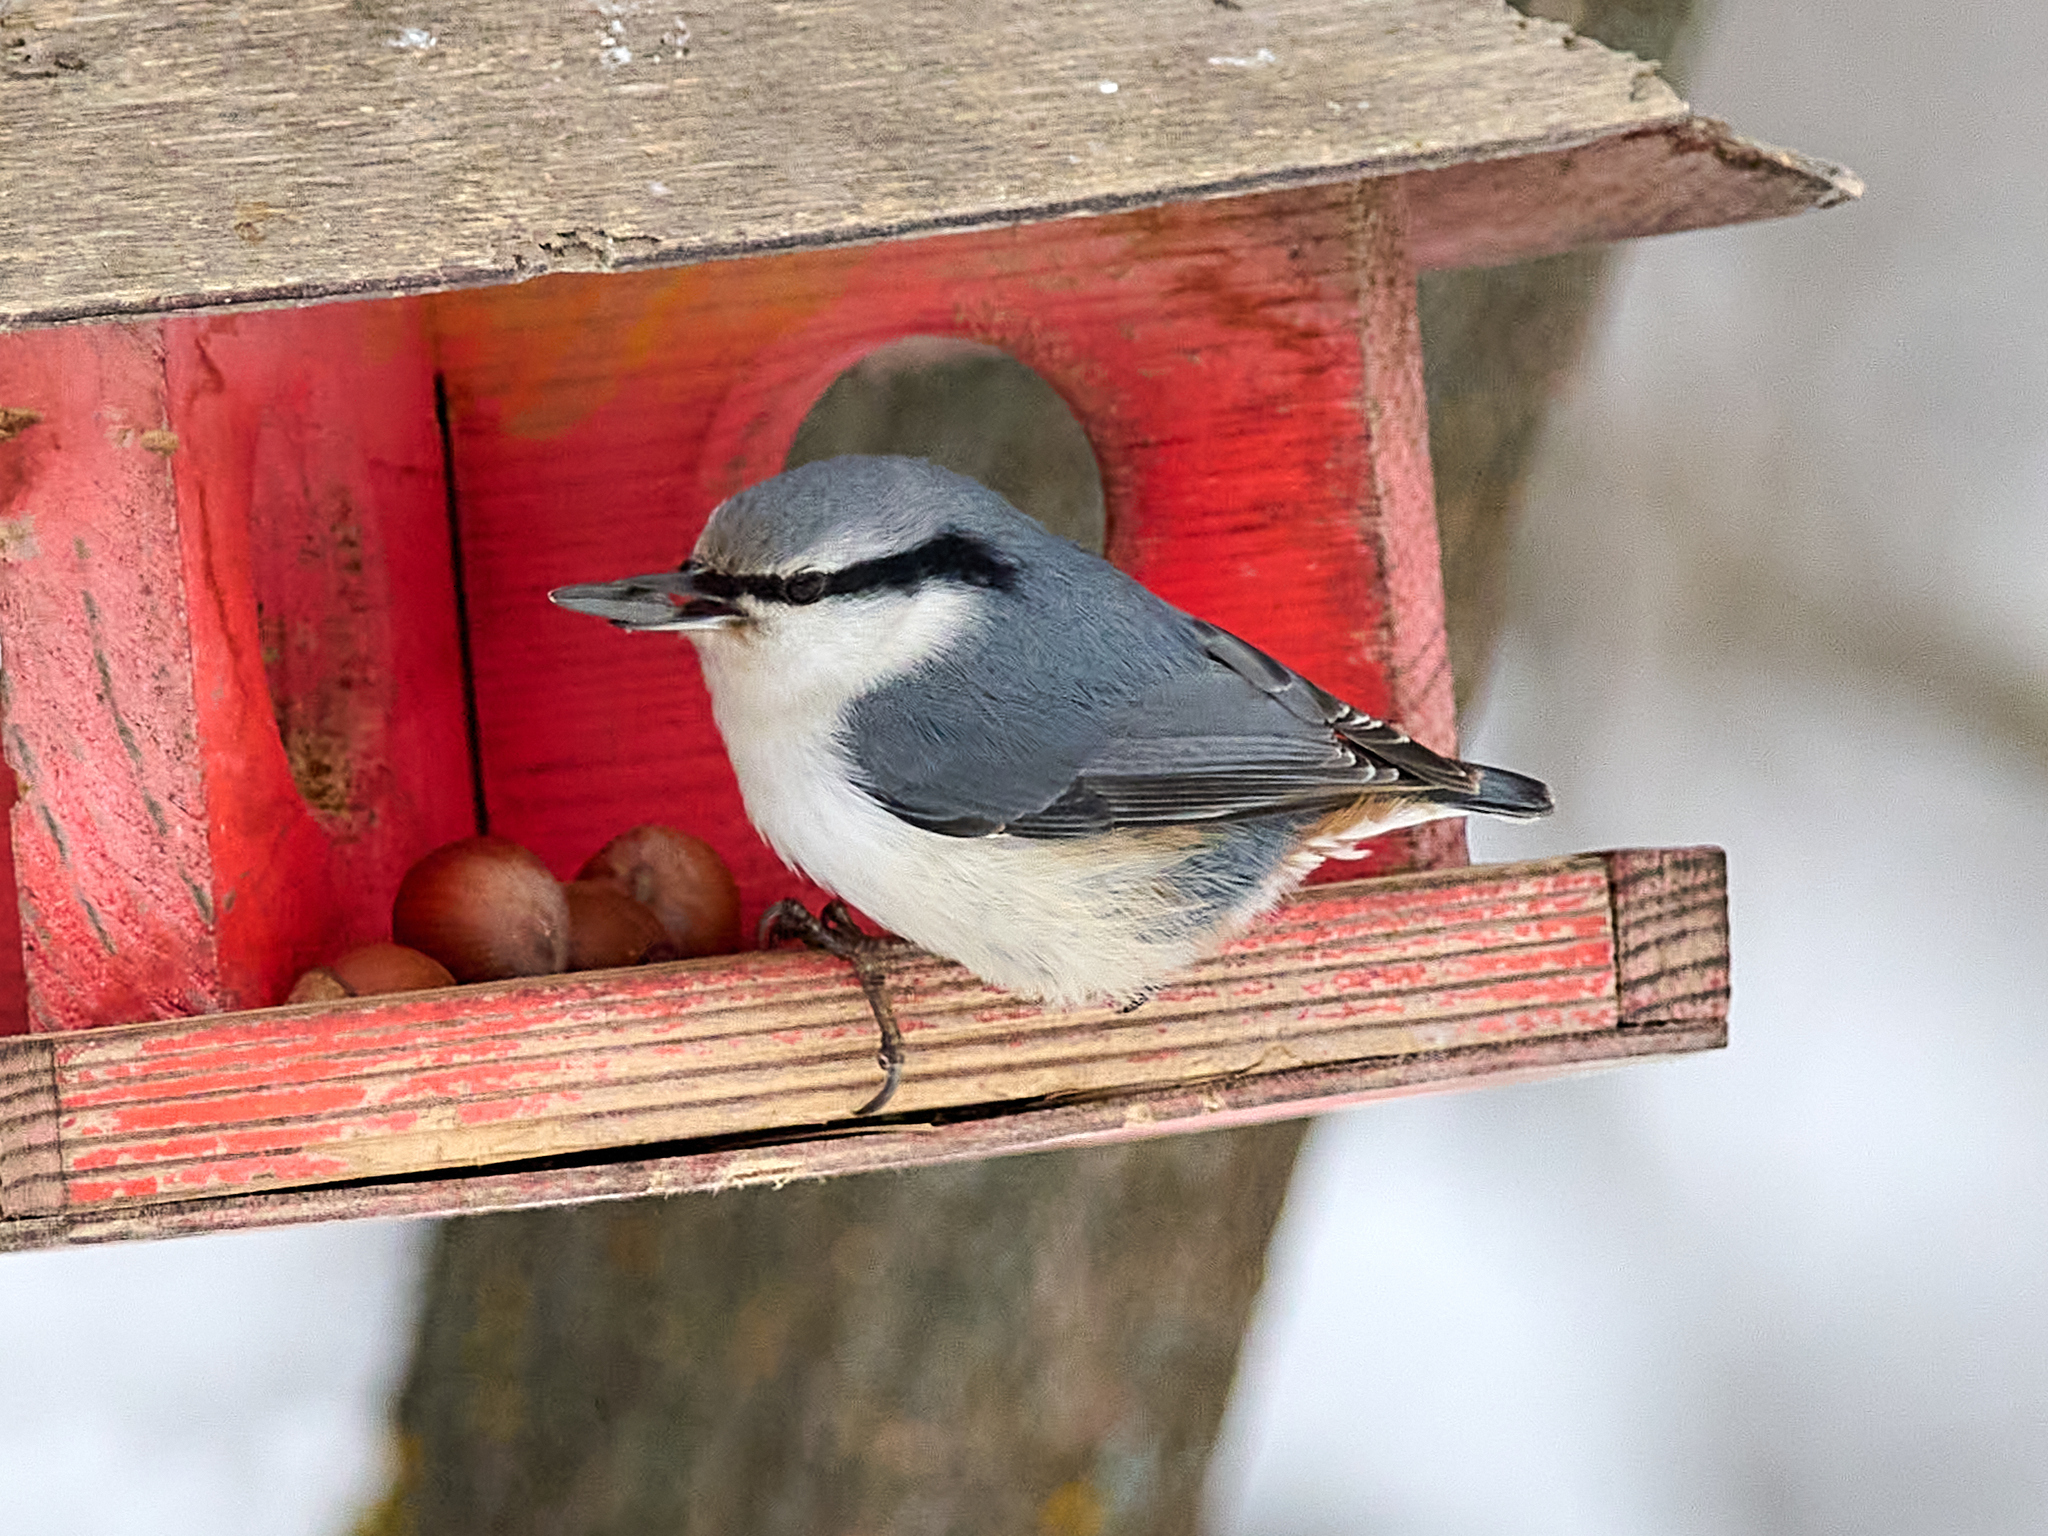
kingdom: Animalia
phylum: Chordata
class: Aves
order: Passeriformes
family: Sittidae
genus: Sitta
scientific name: Sitta europaea
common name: Eurasian nuthatch
